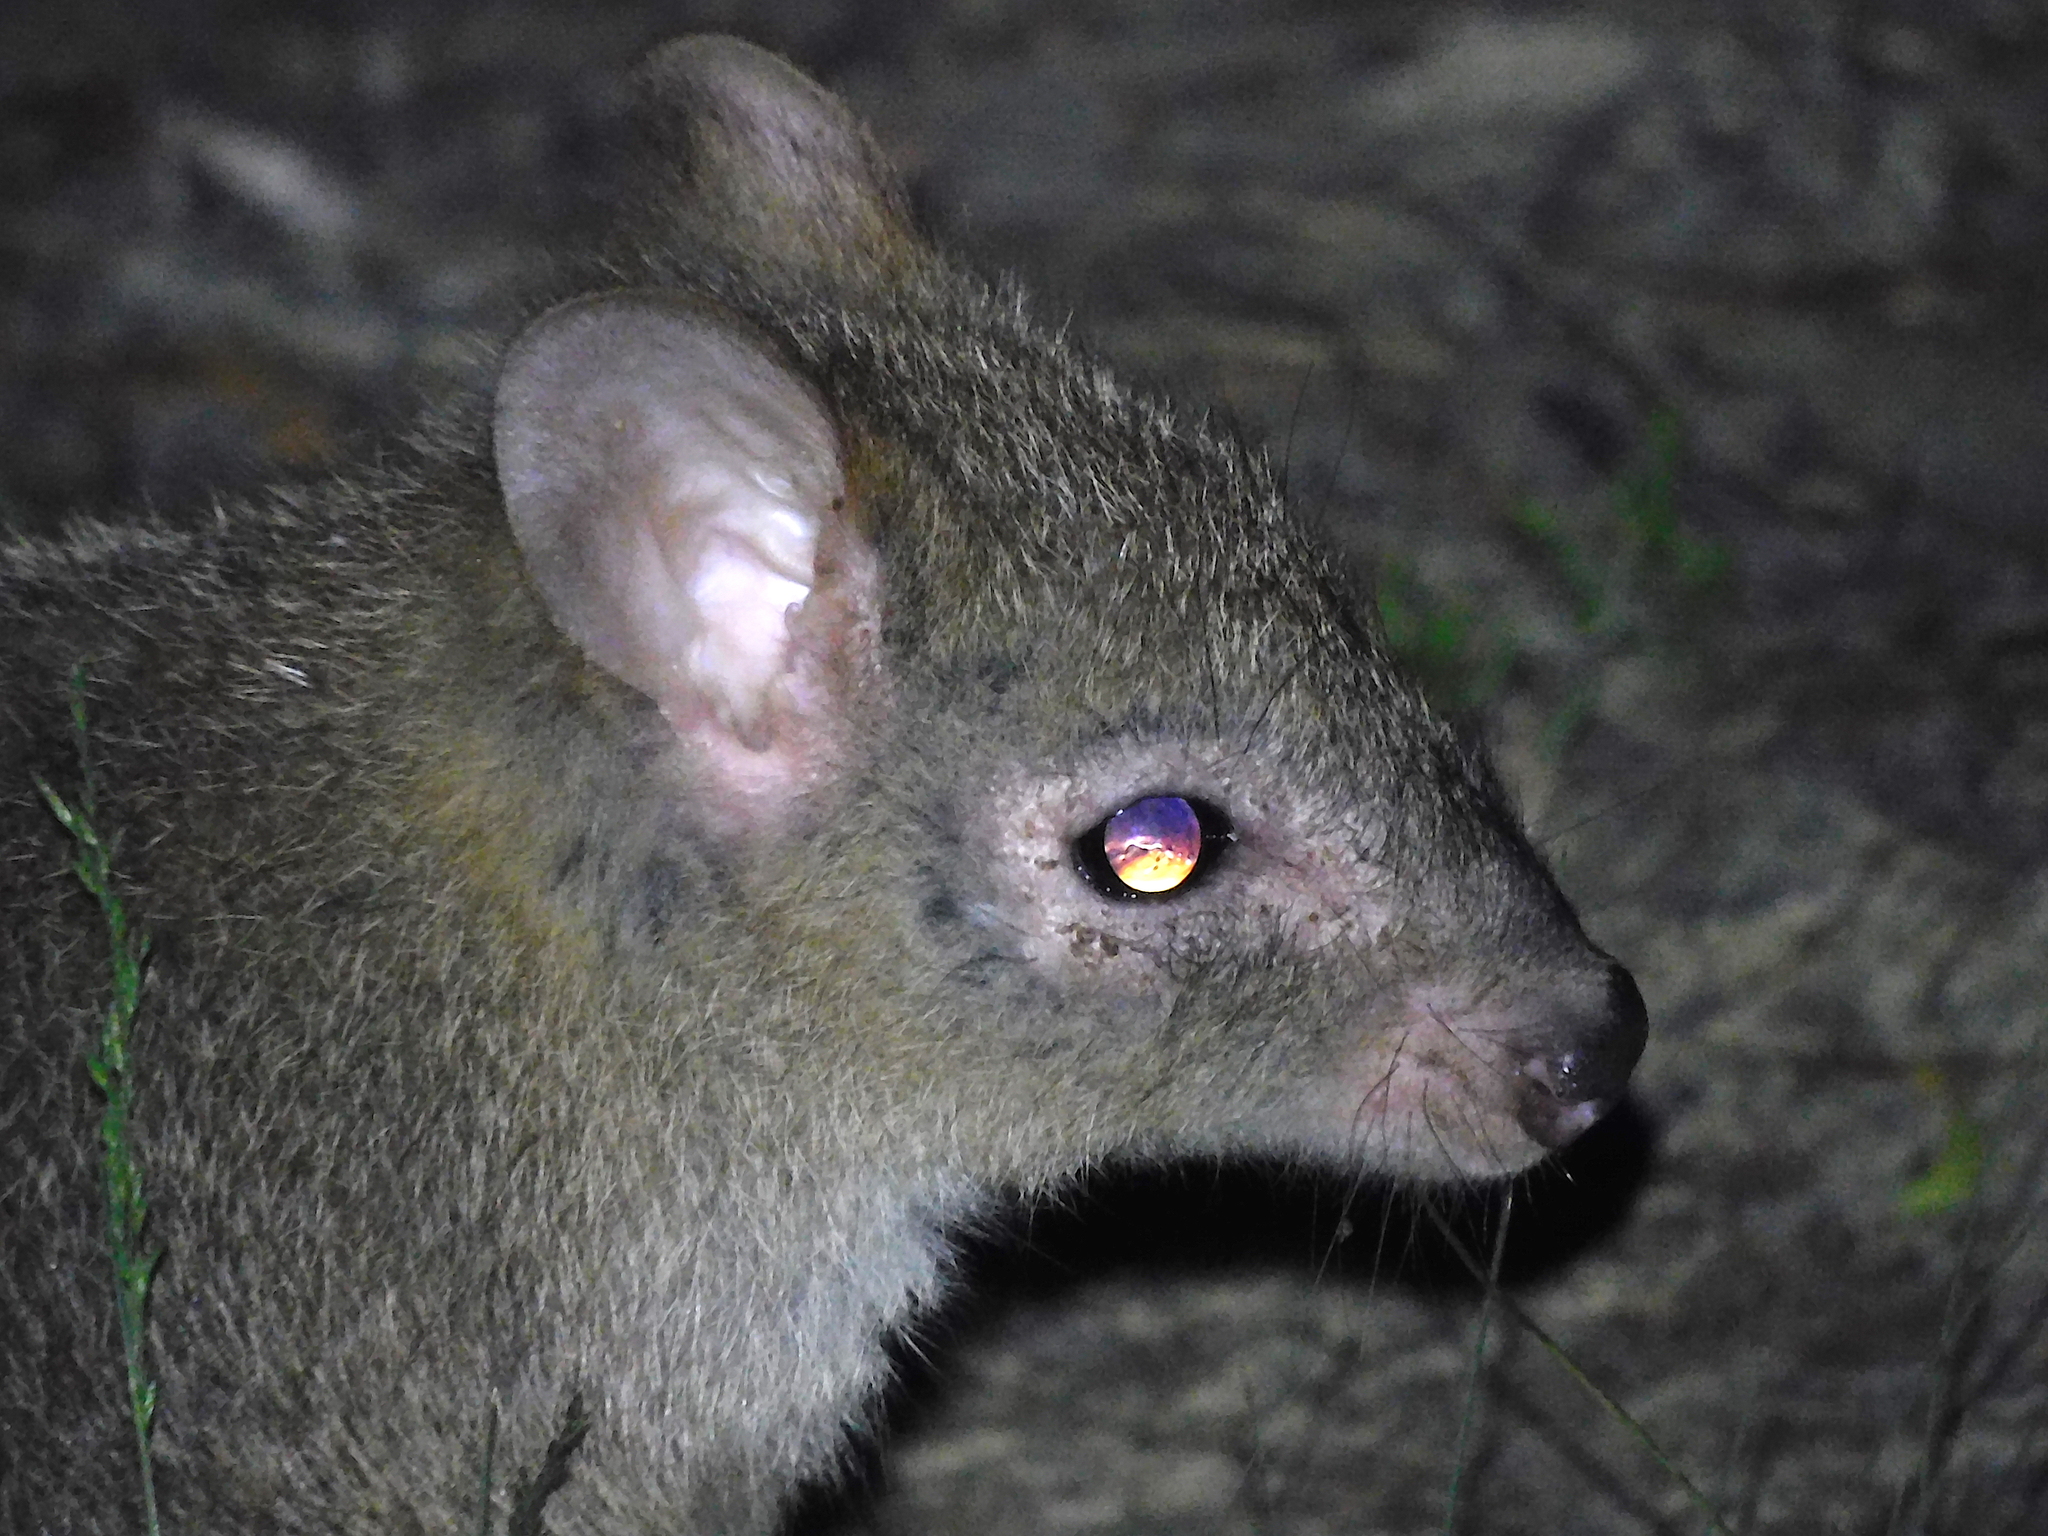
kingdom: Animalia
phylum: Chordata
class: Mammalia
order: Diprotodontia
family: Potoroidae
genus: Bettongia
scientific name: Bettongia gaimardi
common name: Eastern bettong
